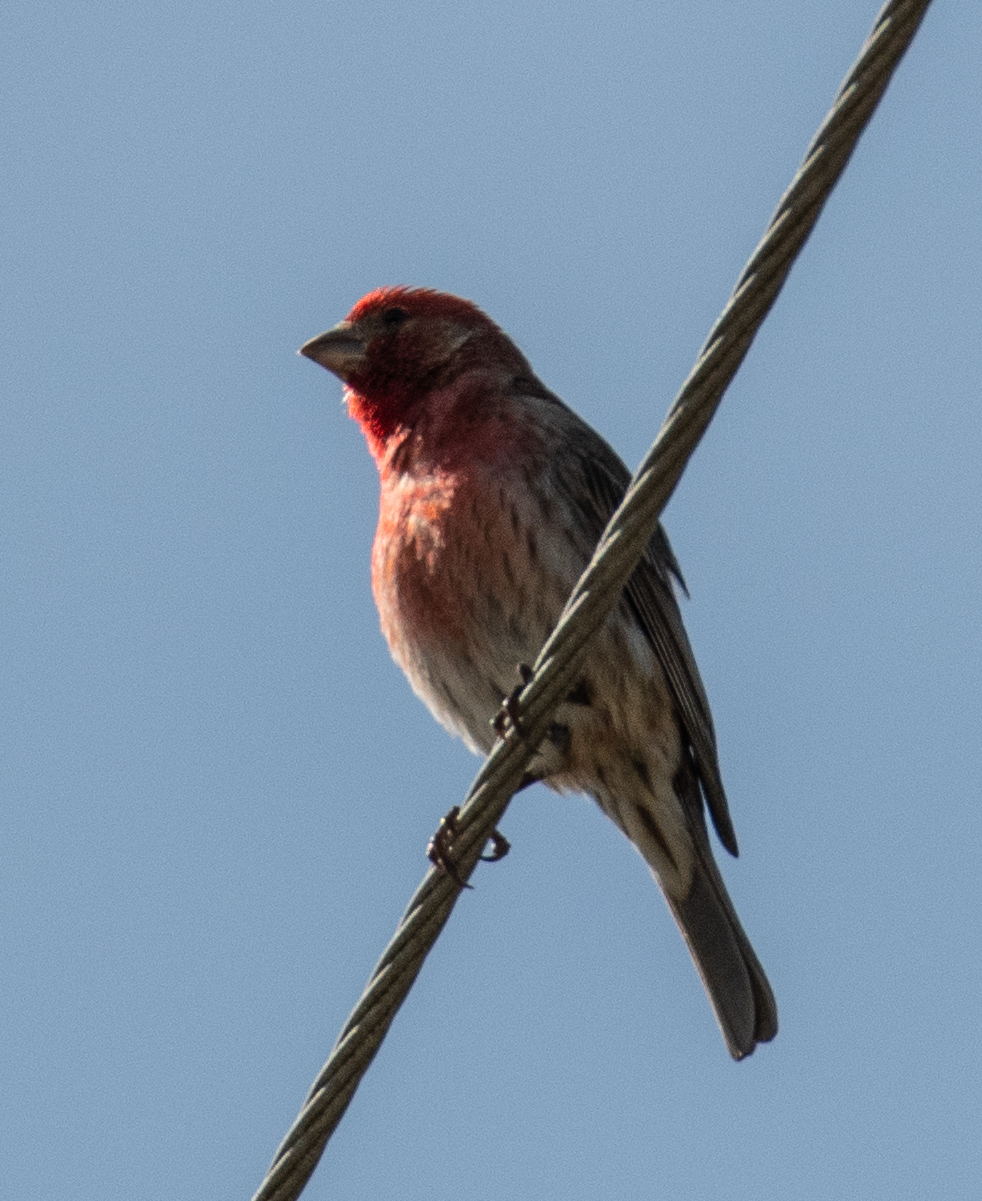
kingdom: Animalia
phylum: Chordata
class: Aves
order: Passeriformes
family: Fringillidae
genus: Haemorhous
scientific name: Haemorhous mexicanus
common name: House finch
